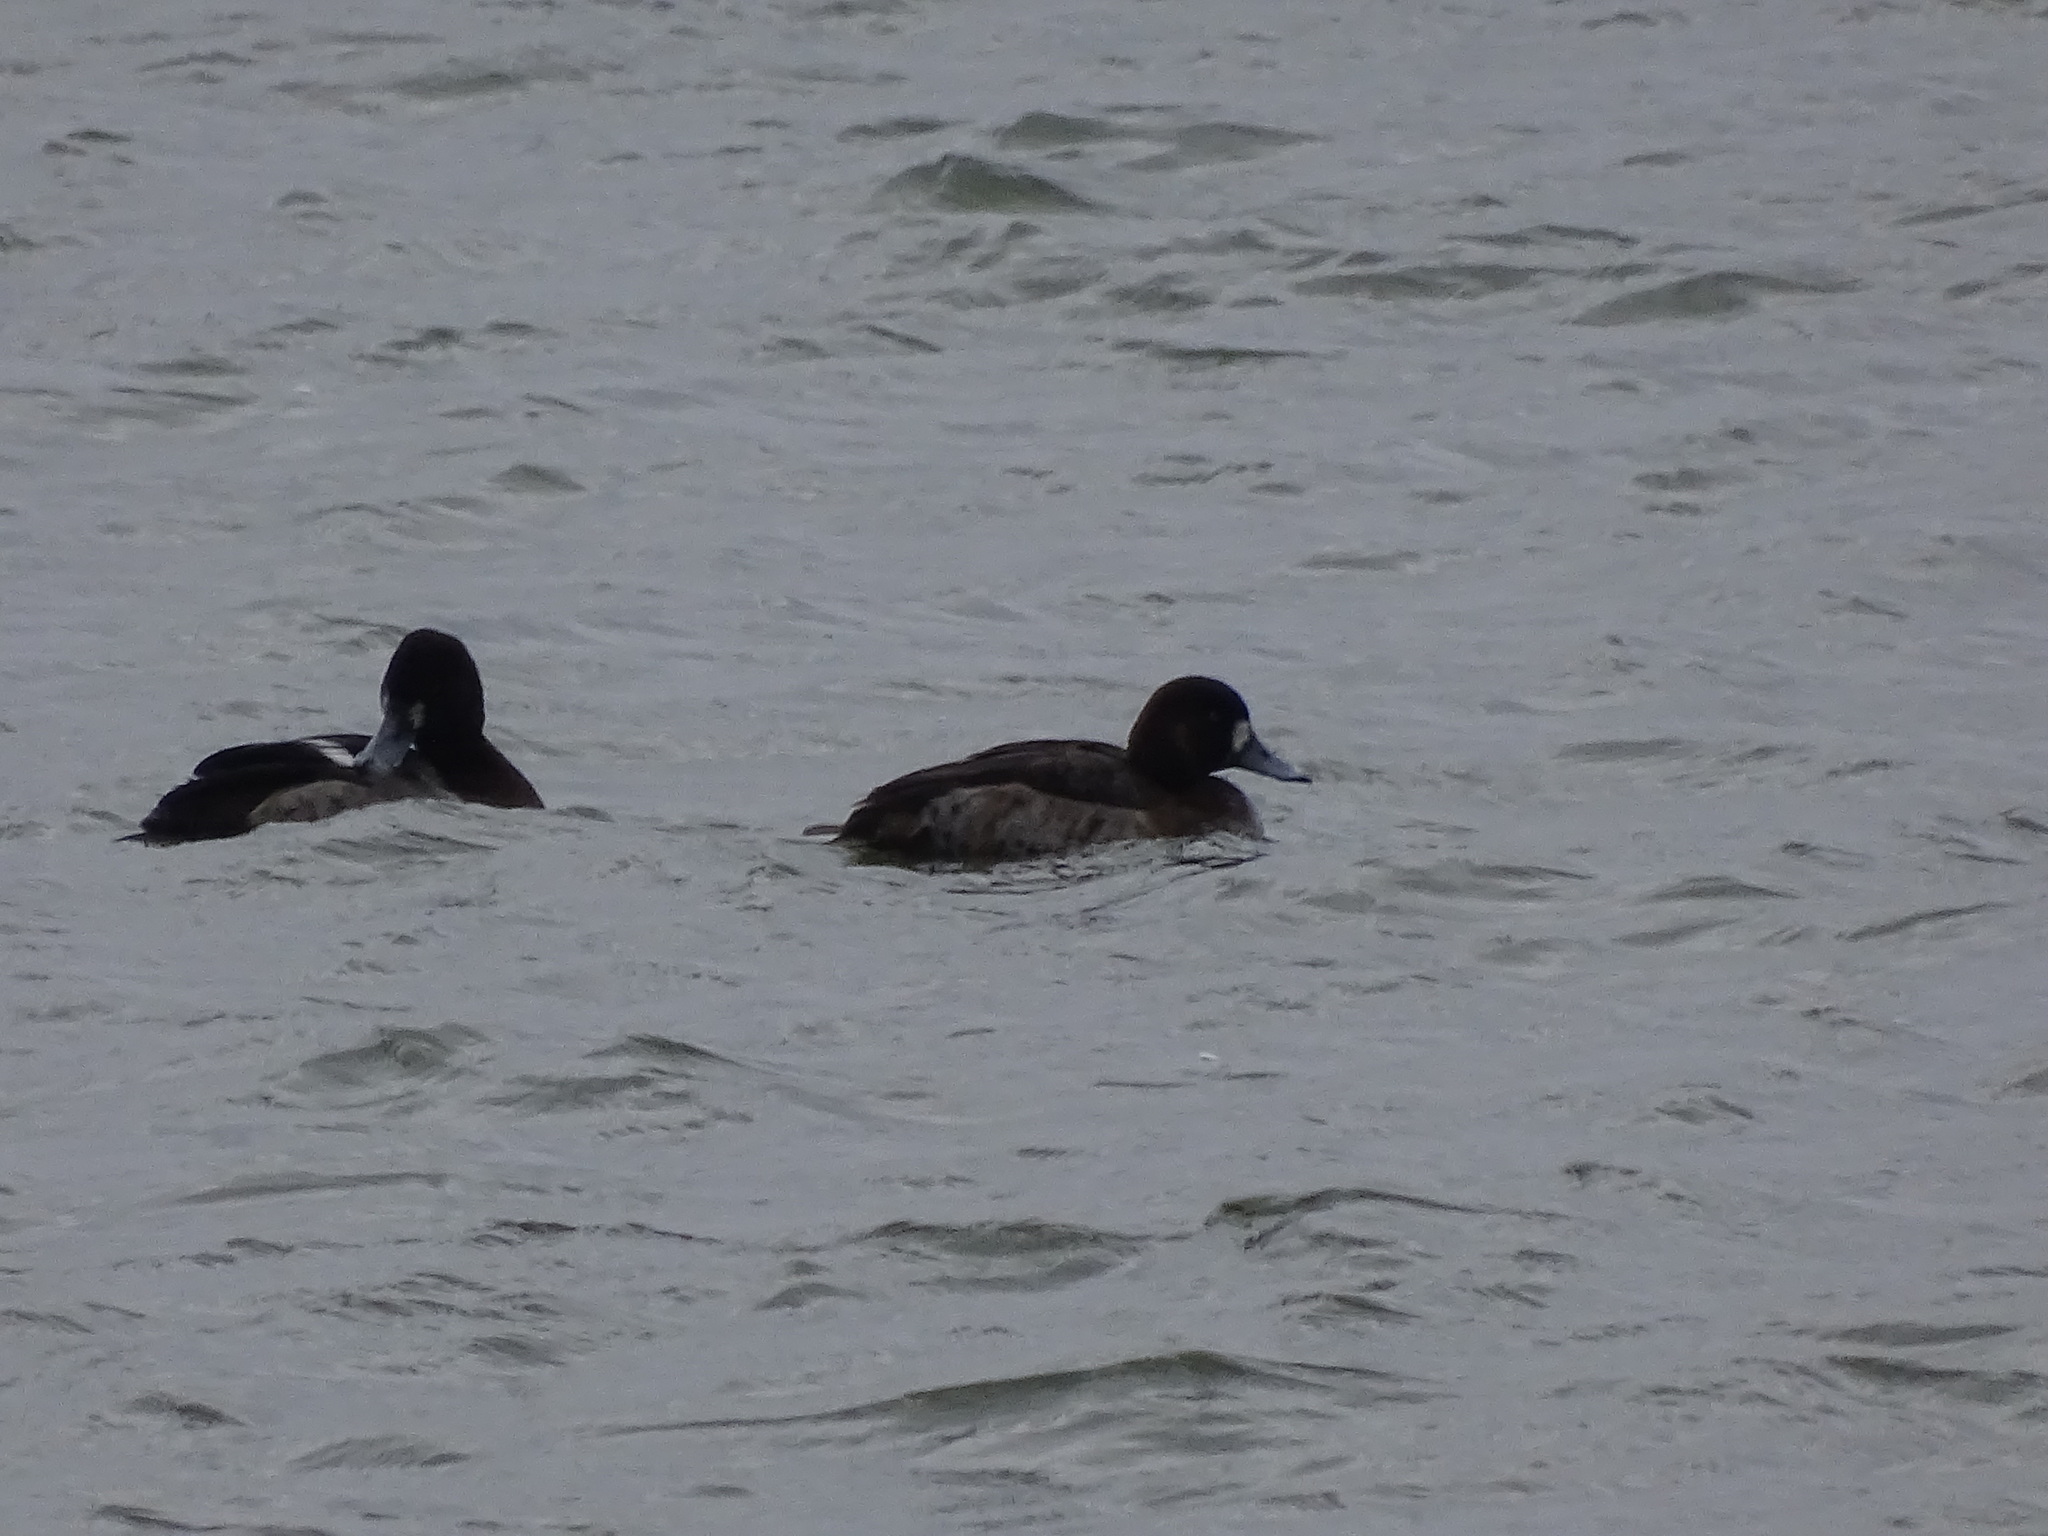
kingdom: Animalia
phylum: Chordata
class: Aves
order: Anseriformes
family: Anatidae
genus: Aythya
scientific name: Aythya marila
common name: Greater scaup
